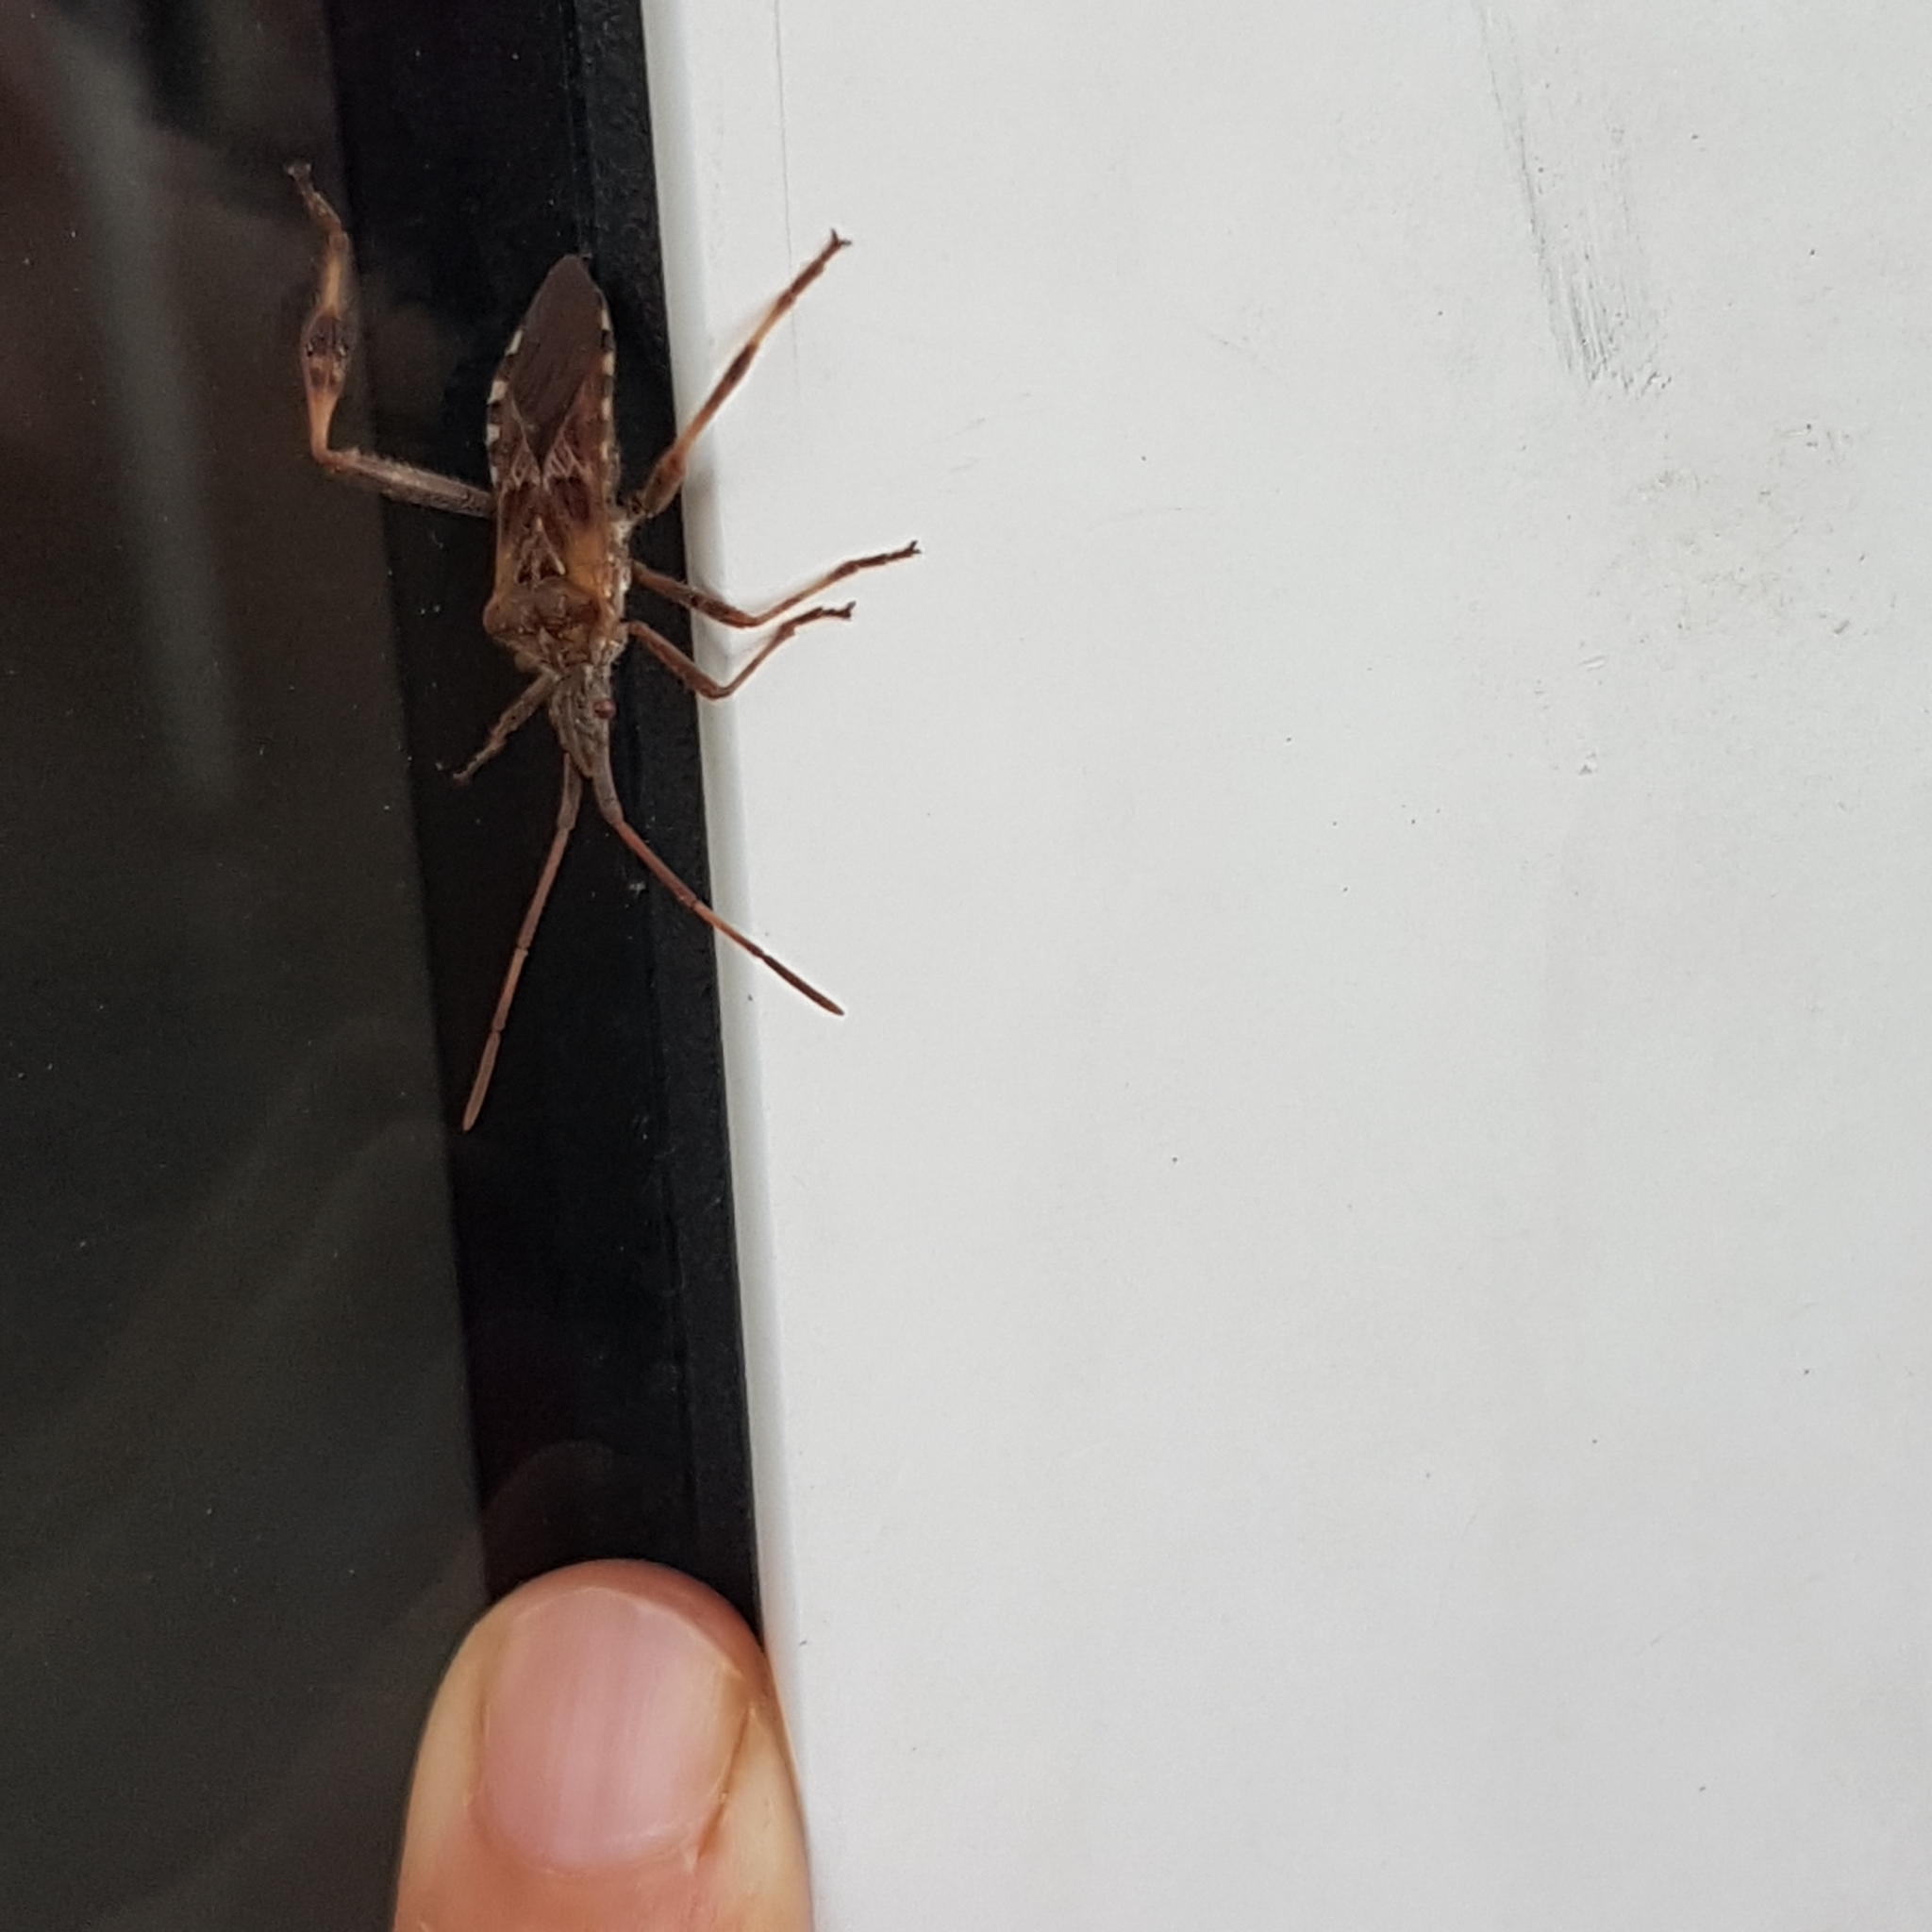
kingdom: Animalia
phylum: Arthropoda
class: Insecta
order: Hemiptera
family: Coreidae
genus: Leptoglossus
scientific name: Leptoglossus occidentalis
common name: Western conifer-seed bug
